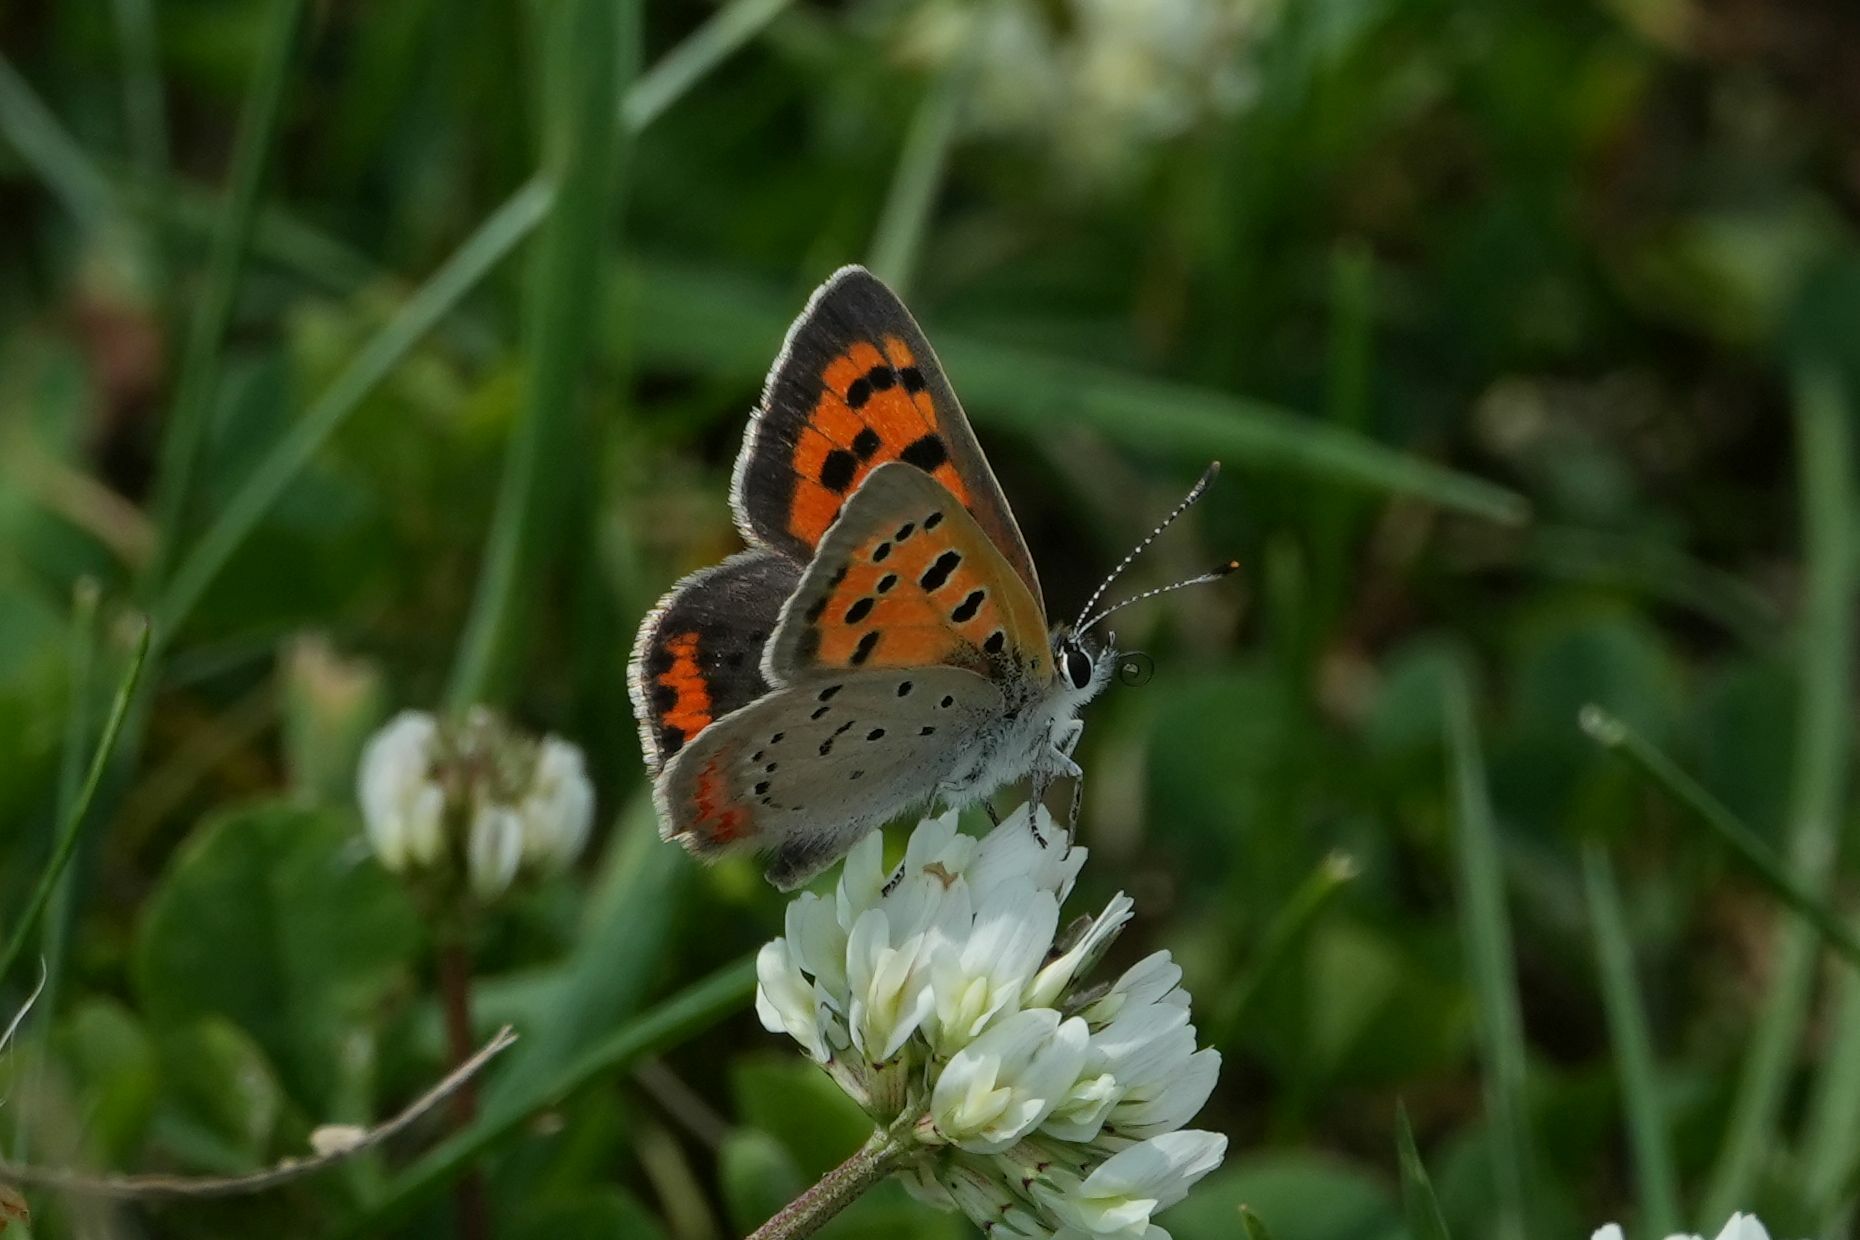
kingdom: Animalia
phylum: Arthropoda
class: Insecta
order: Lepidoptera
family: Lycaenidae
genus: Lycaena
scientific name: Lycaena hypophlaeas
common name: American copper
